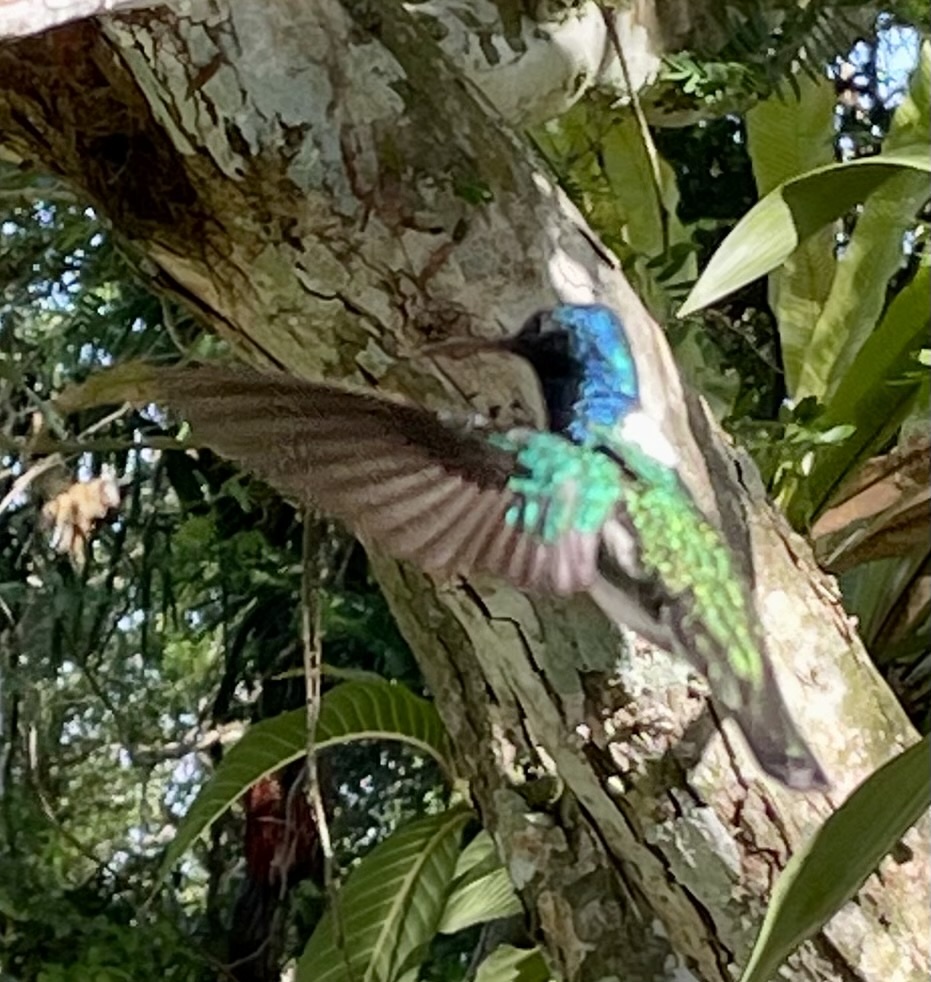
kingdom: Animalia
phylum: Chordata
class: Aves
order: Apodiformes
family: Trochilidae
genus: Florisuga
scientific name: Florisuga mellivora
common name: White-necked jacobin
